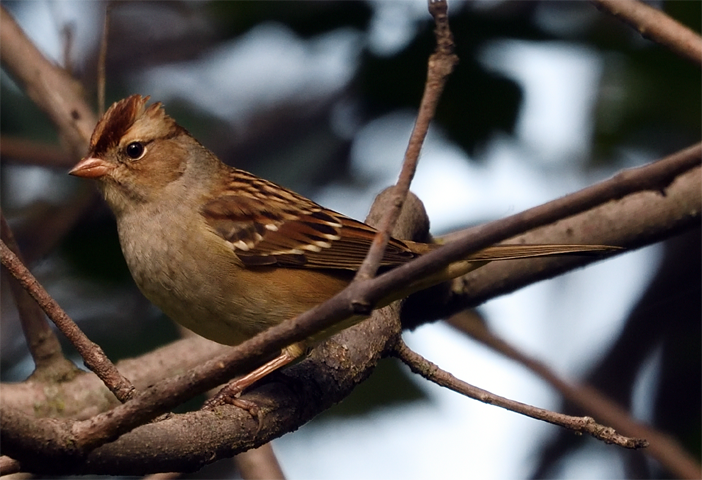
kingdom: Animalia
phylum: Chordata
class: Aves
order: Passeriformes
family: Passerellidae
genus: Zonotrichia
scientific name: Zonotrichia leucophrys
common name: White-crowned sparrow
